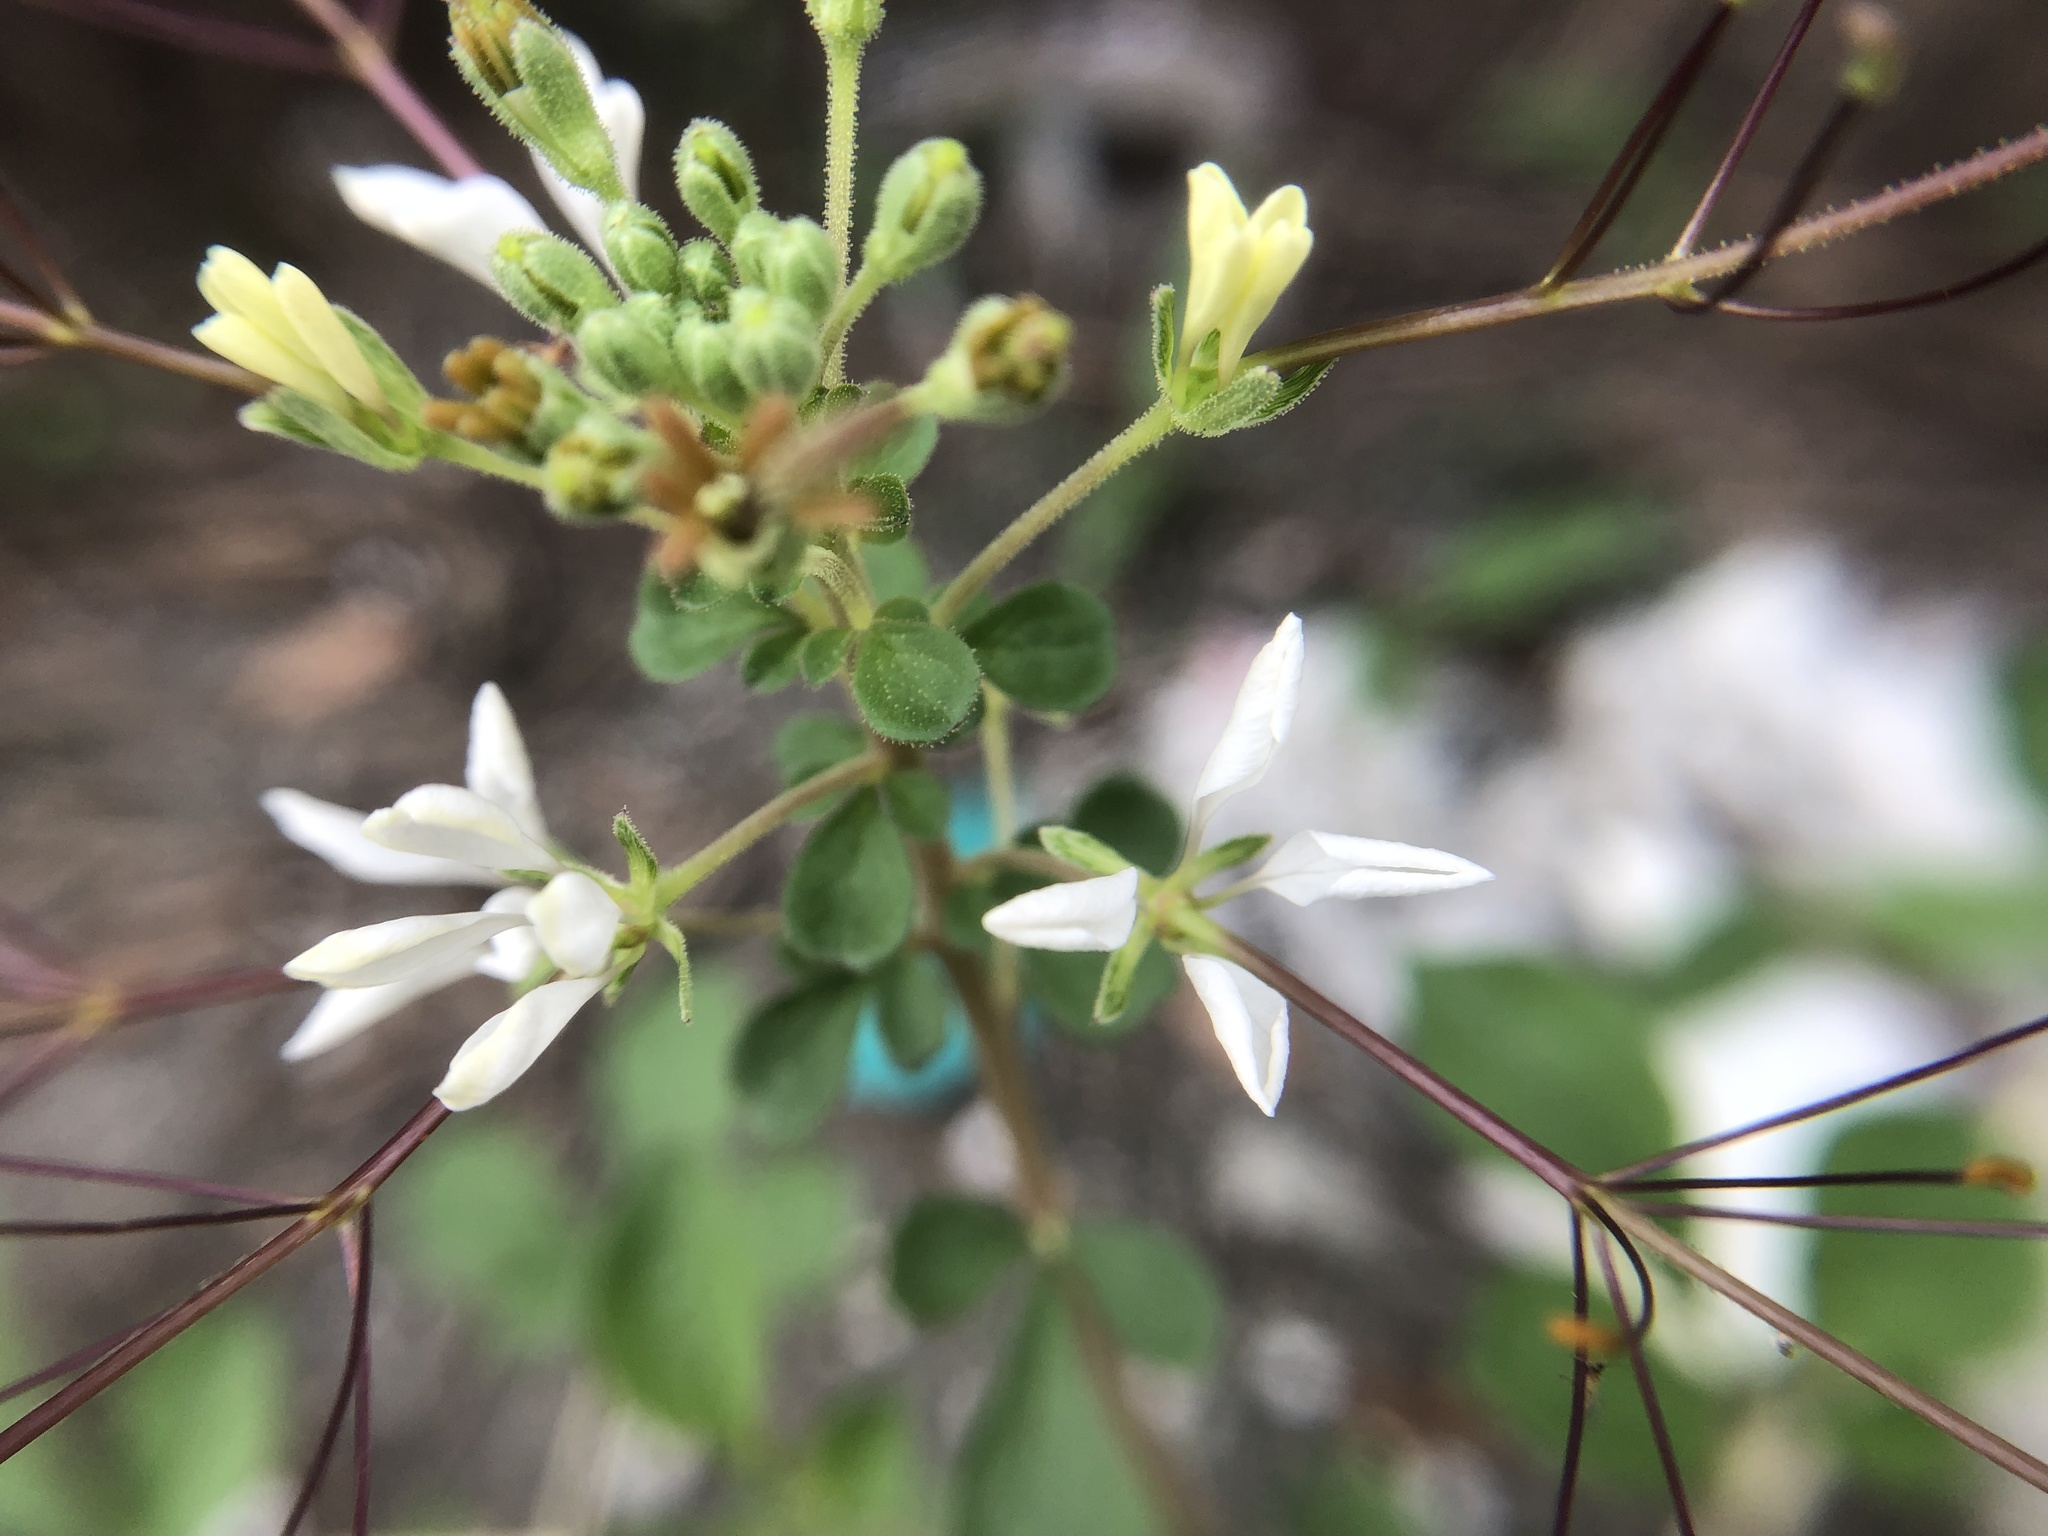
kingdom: Plantae
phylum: Tracheophyta
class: Magnoliopsida
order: Brassicales
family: Cleomaceae
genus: Gynandropsis
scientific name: Gynandropsis gynandra
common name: Spiderwisp
